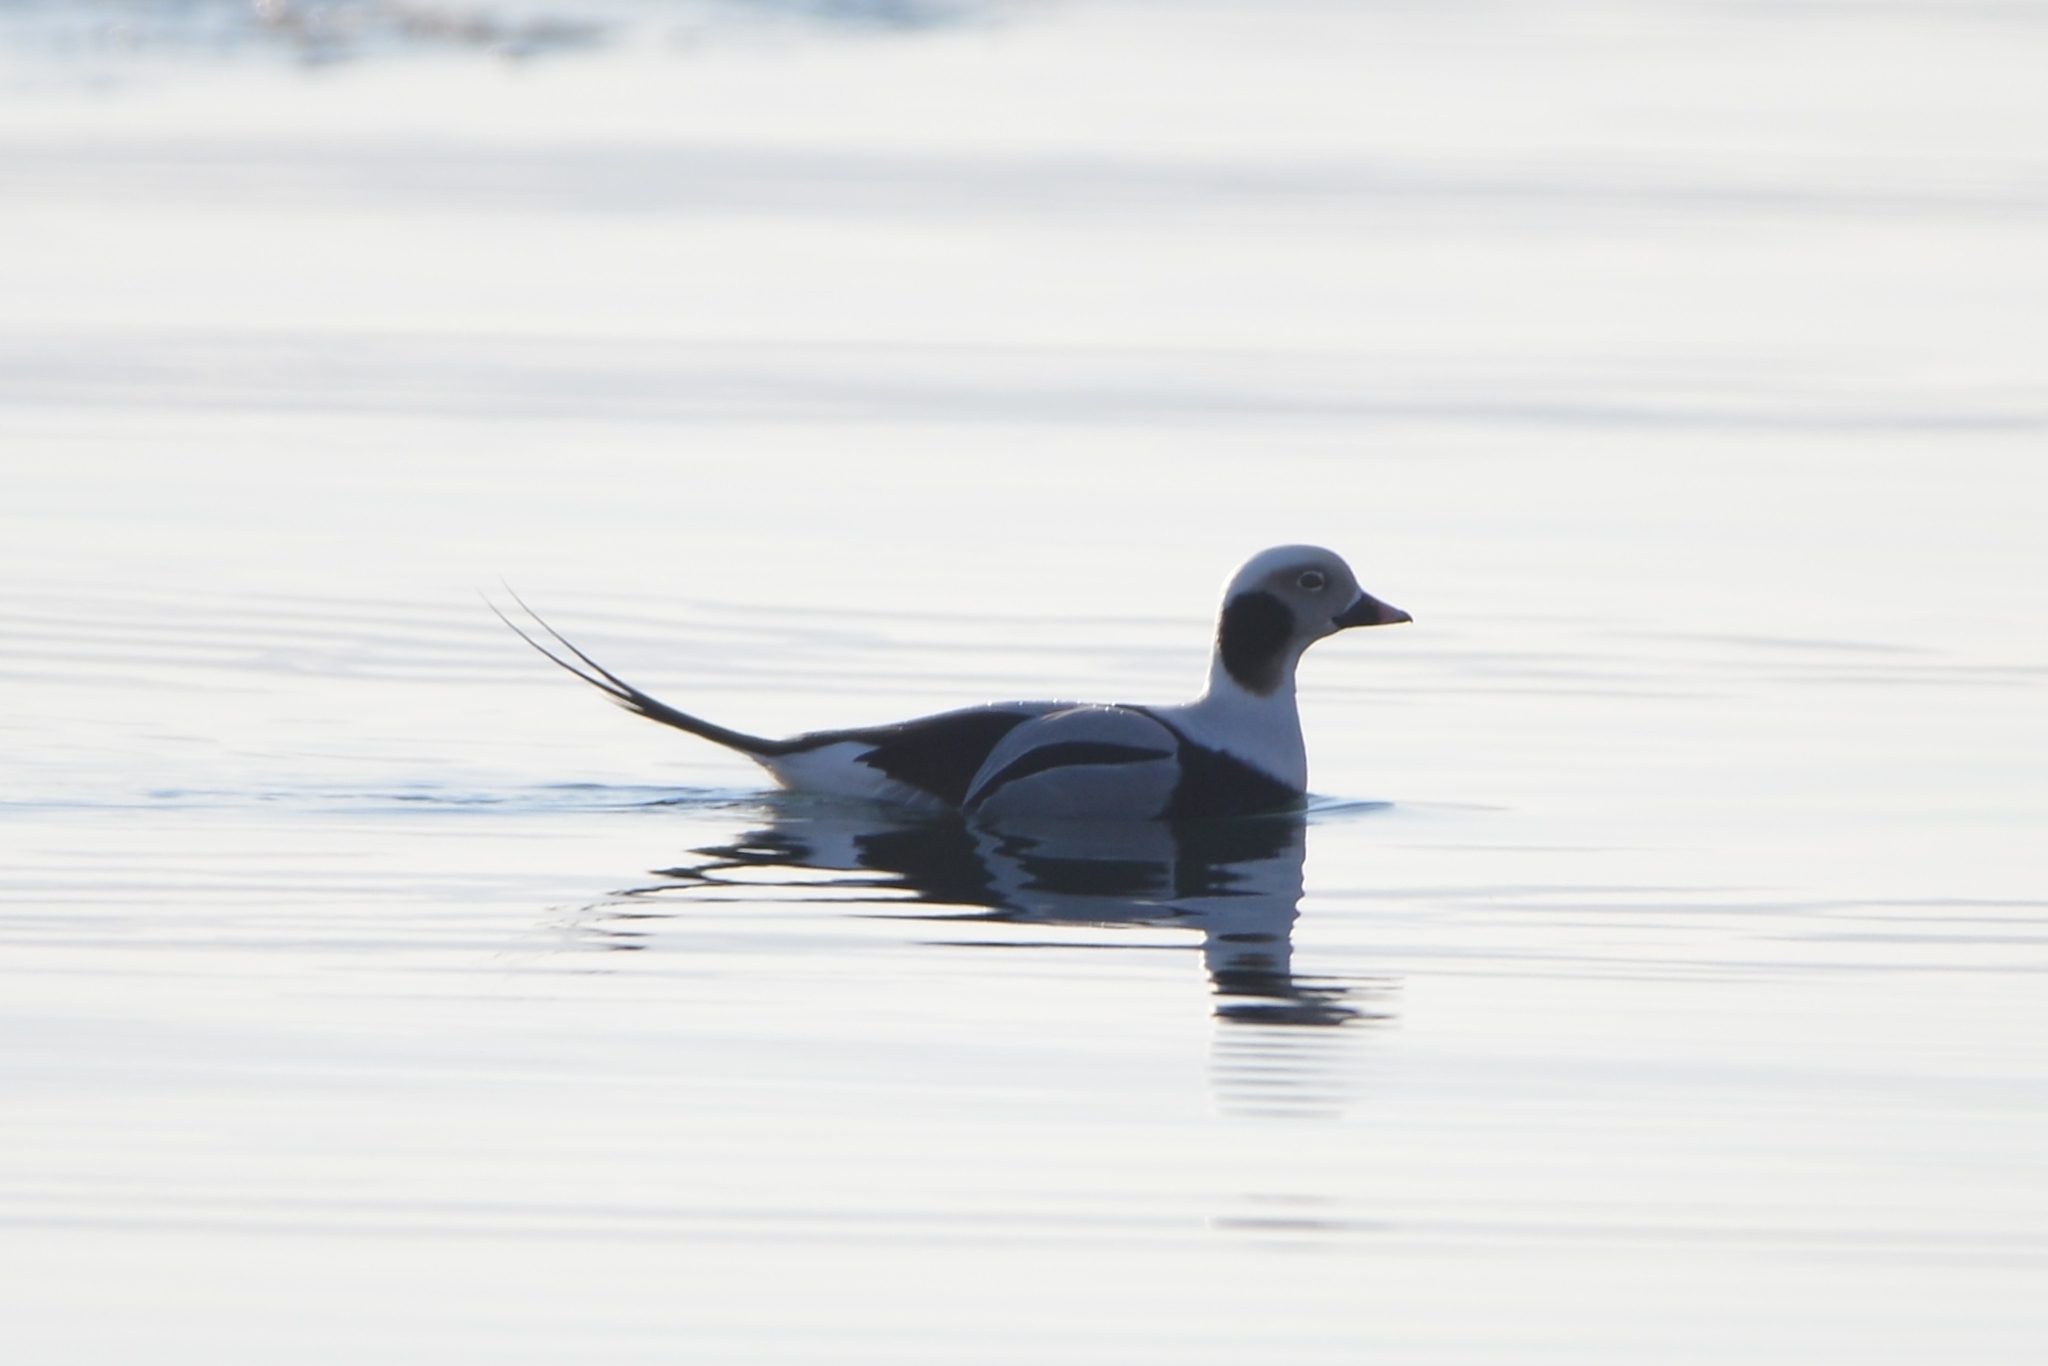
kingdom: Animalia
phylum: Chordata
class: Aves
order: Anseriformes
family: Anatidae
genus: Clangula
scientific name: Clangula hyemalis
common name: Long-tailed duck
